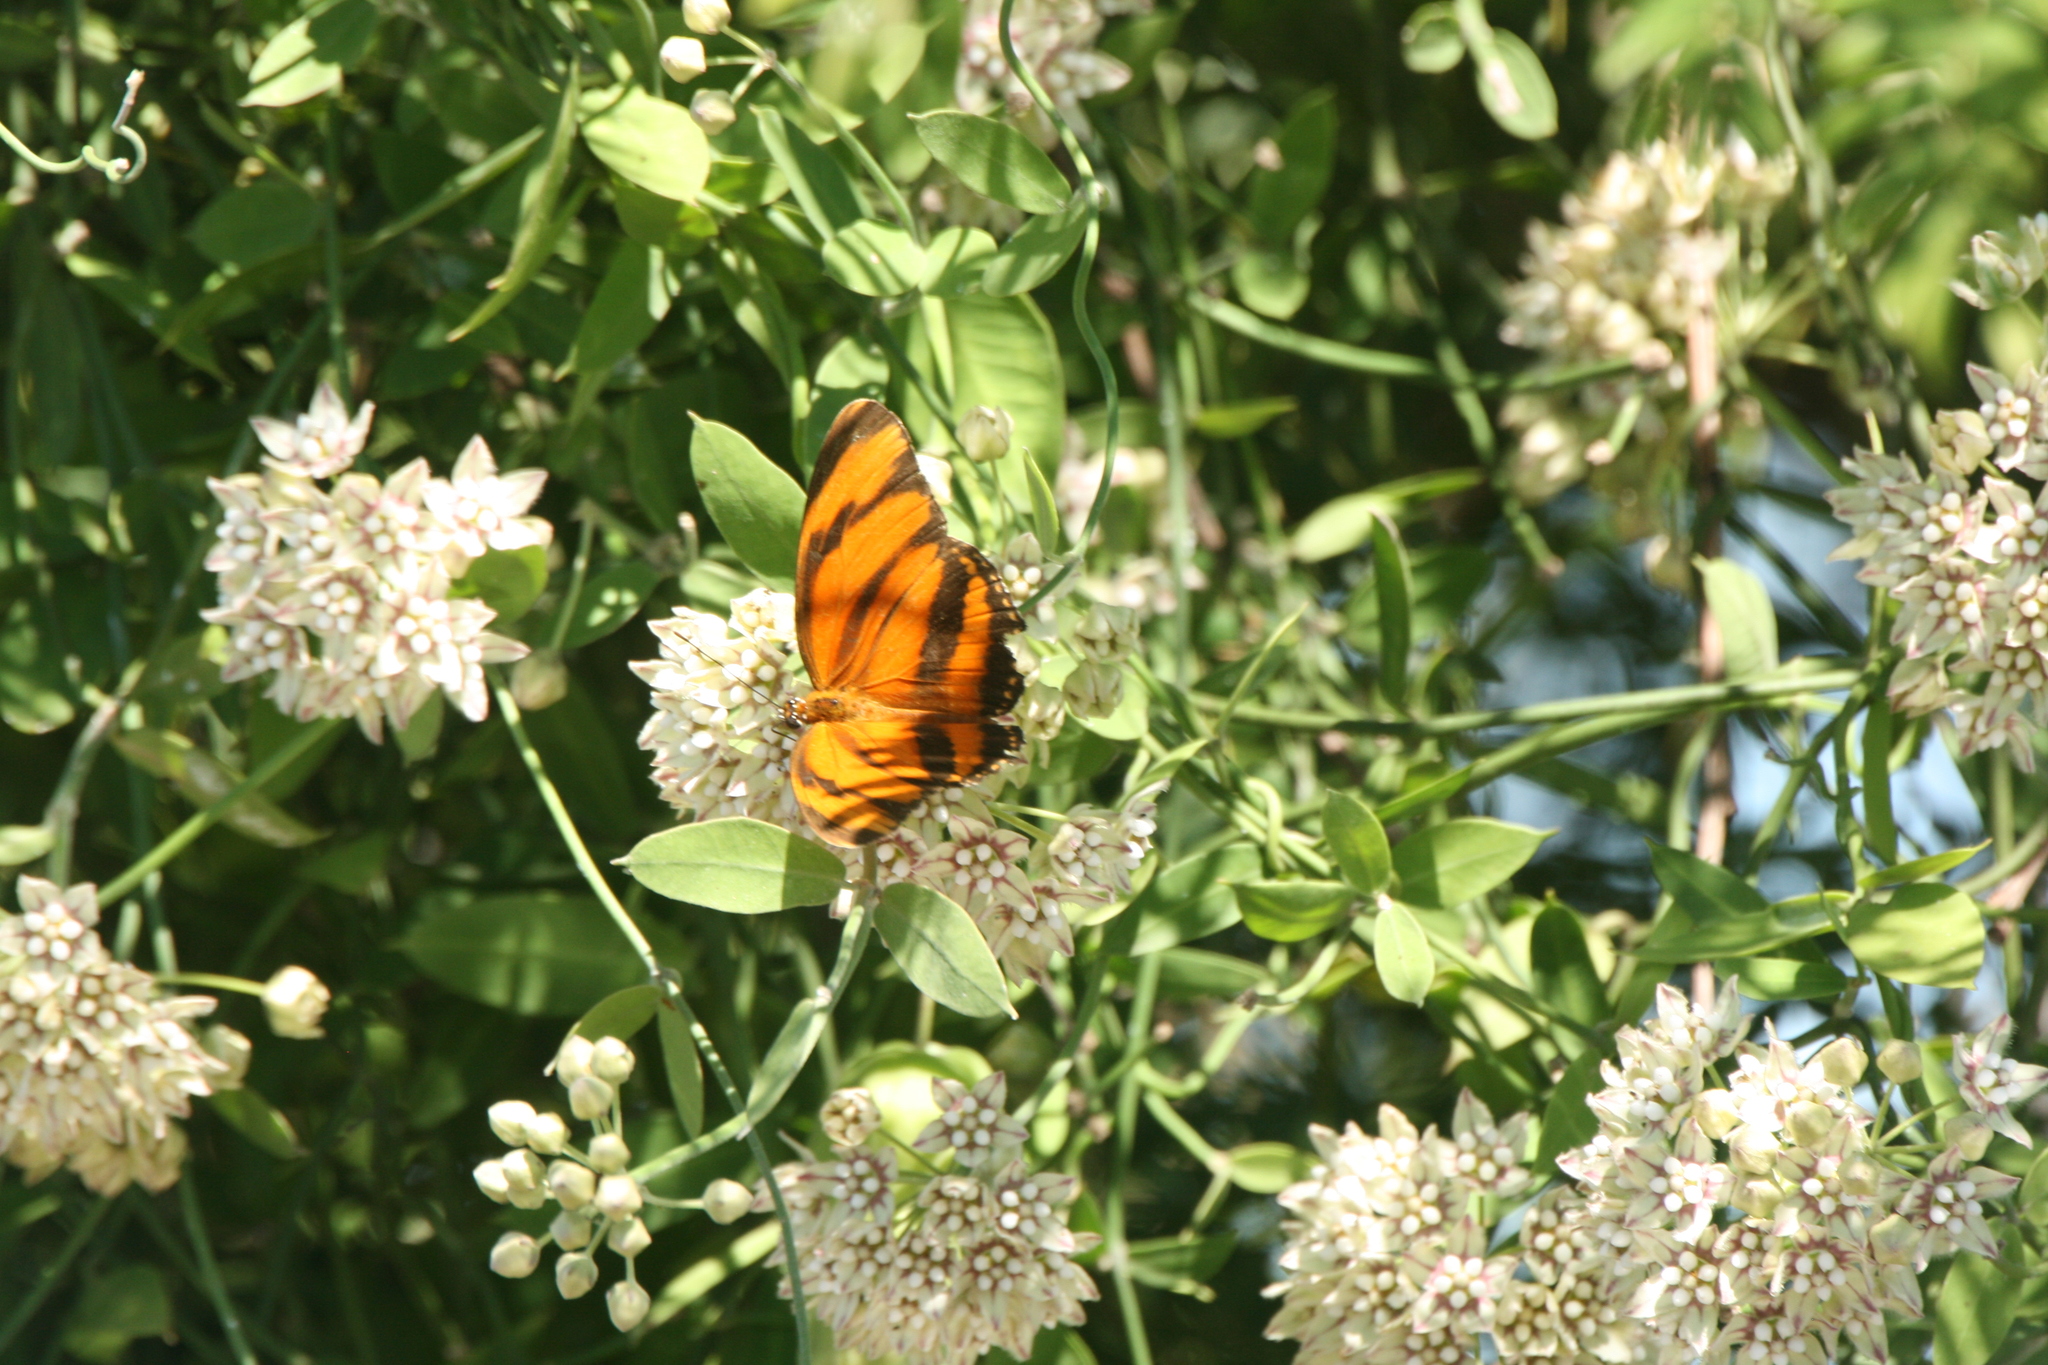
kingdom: Animalia
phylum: Arthropoda
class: Insecta
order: Lepidoptera
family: Nymphalidae
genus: Dryadula
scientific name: Dryadula phaetusa
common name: Banded orange heliconian
